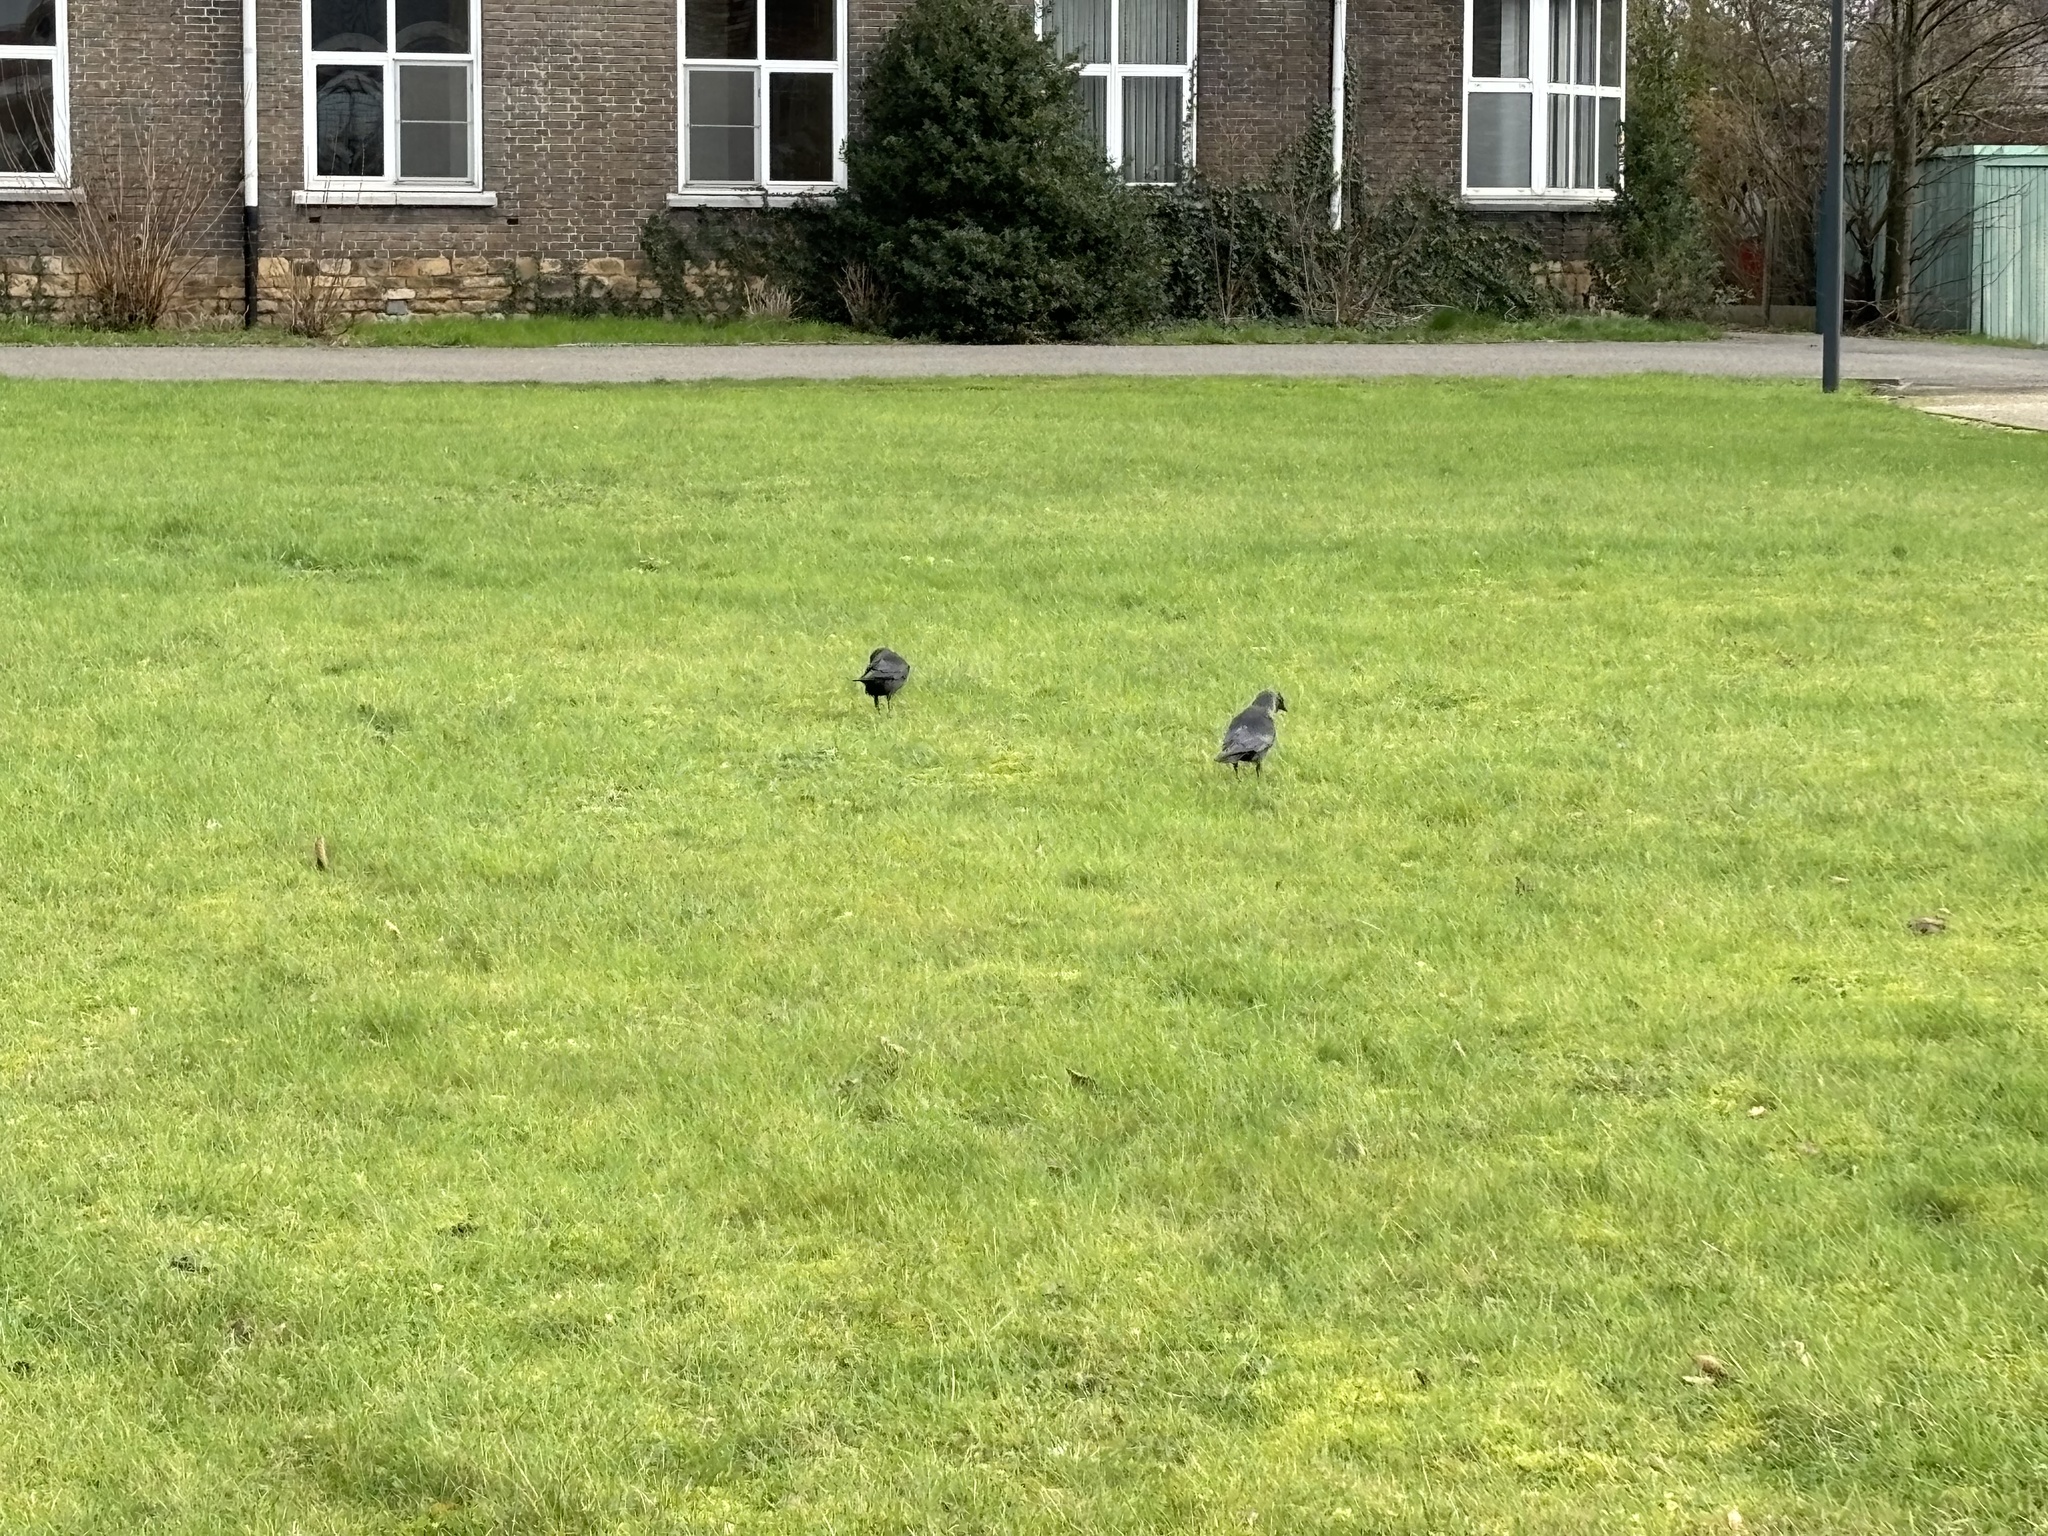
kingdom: Animalia
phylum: Chordata
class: Aves
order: Passeriformes
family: Corvidae
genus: Coloeus
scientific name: Coloeus monedula
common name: Western jackdaw
